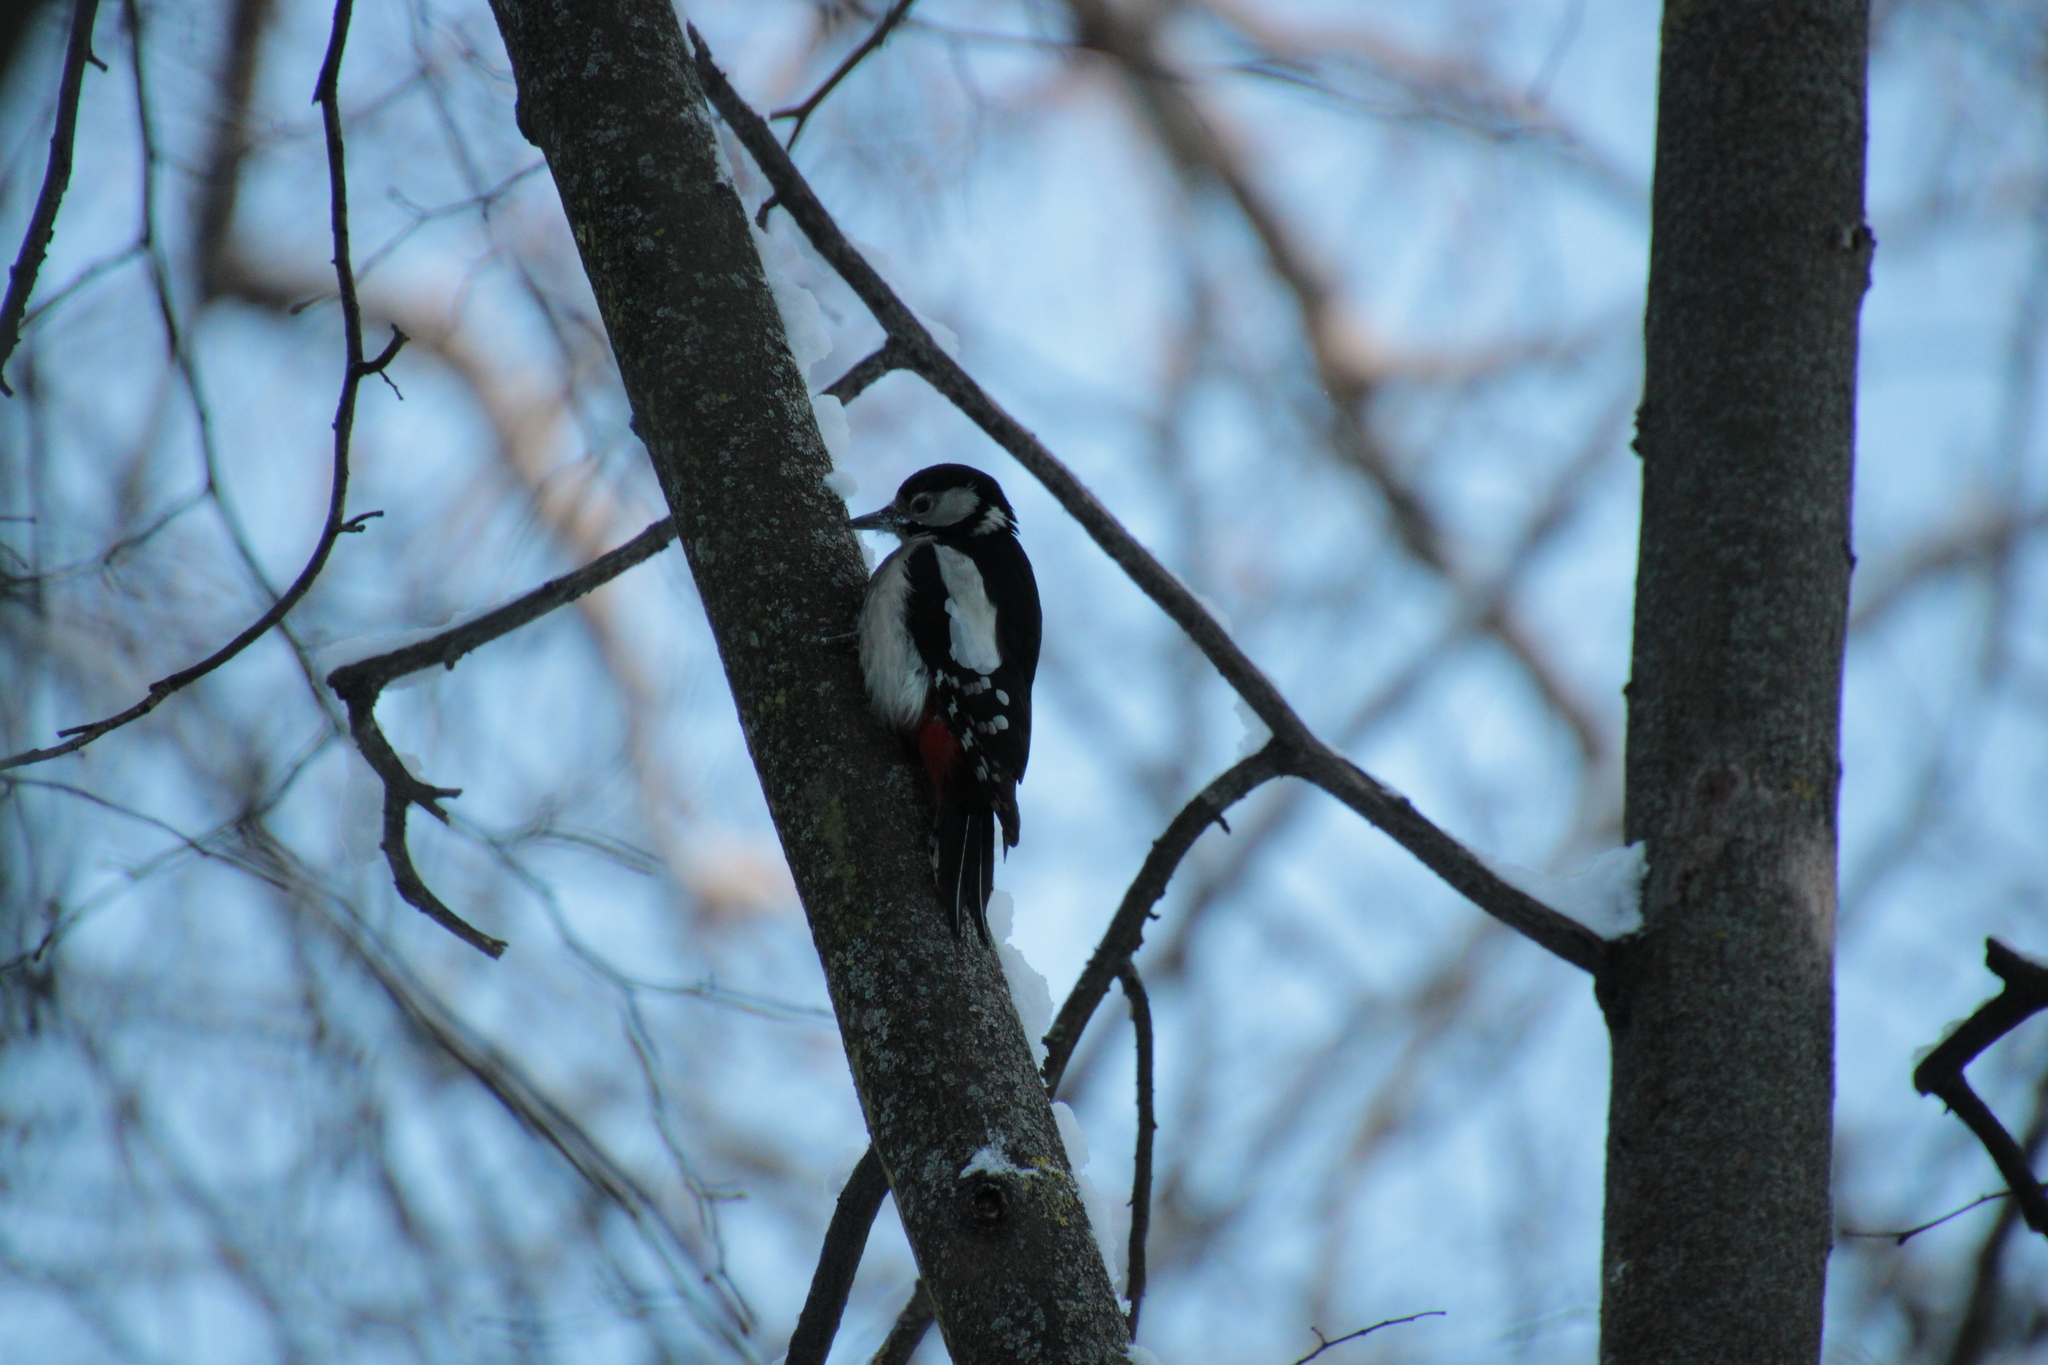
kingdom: Animalia
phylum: Chordata
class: Aves
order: Piciformes
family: Picidae
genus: Dendrocopos
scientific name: Dendrocopos major
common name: Great spotted woodpecker
